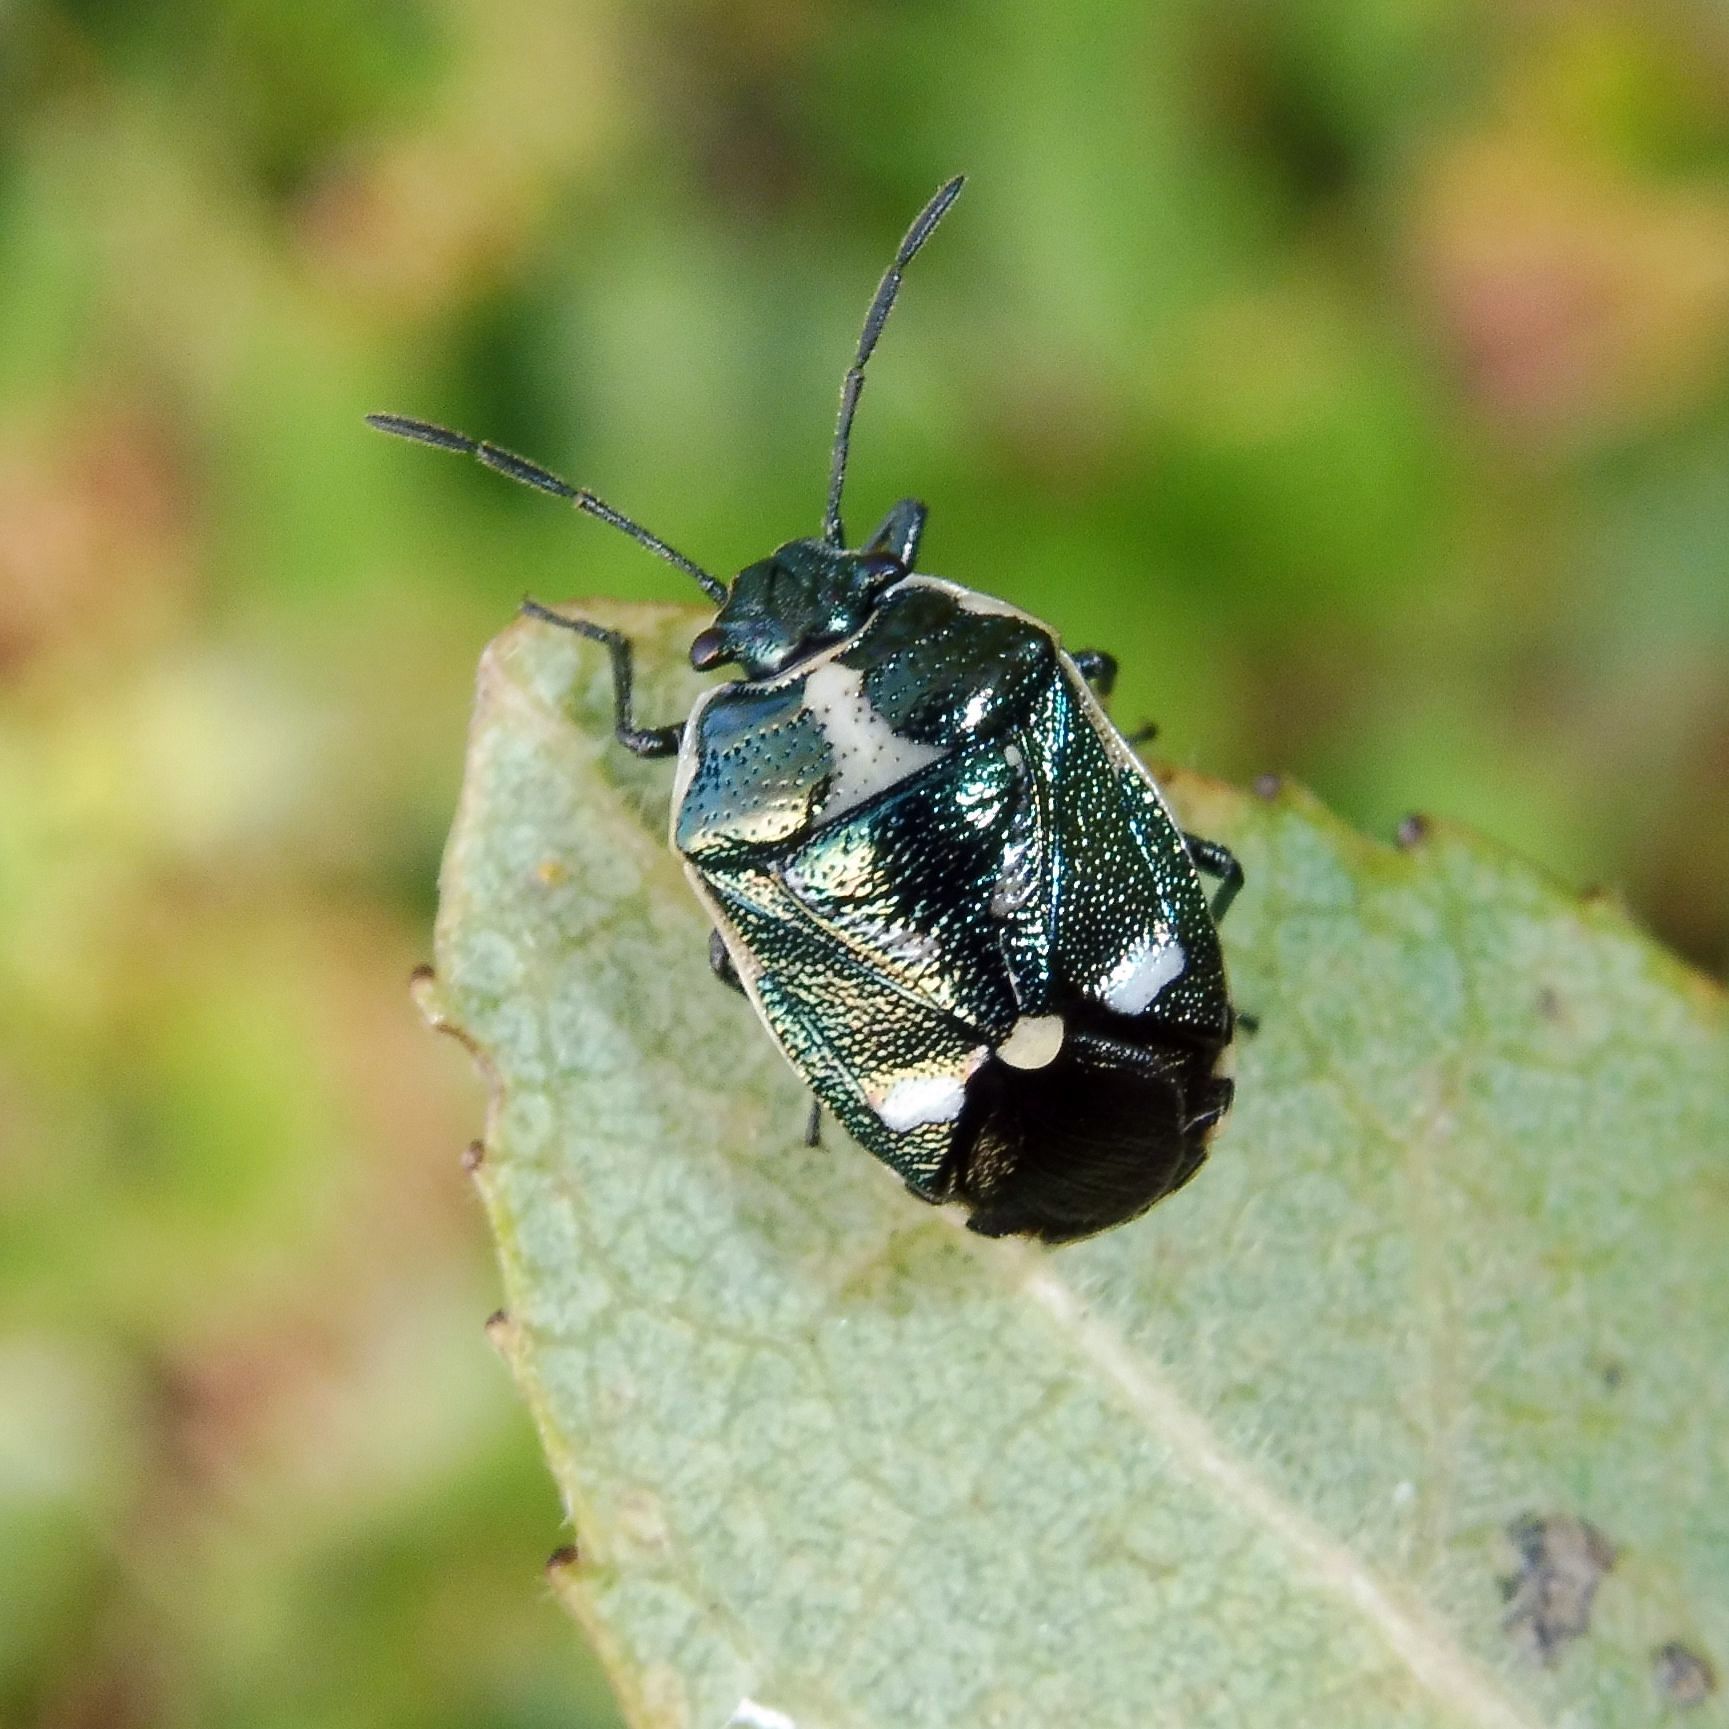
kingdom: Animalia
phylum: Arthropoda
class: Insecta
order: Hemiptera
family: Pentatomidae
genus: Eurydema
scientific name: Eurydema oleracea
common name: Cabbage bug
